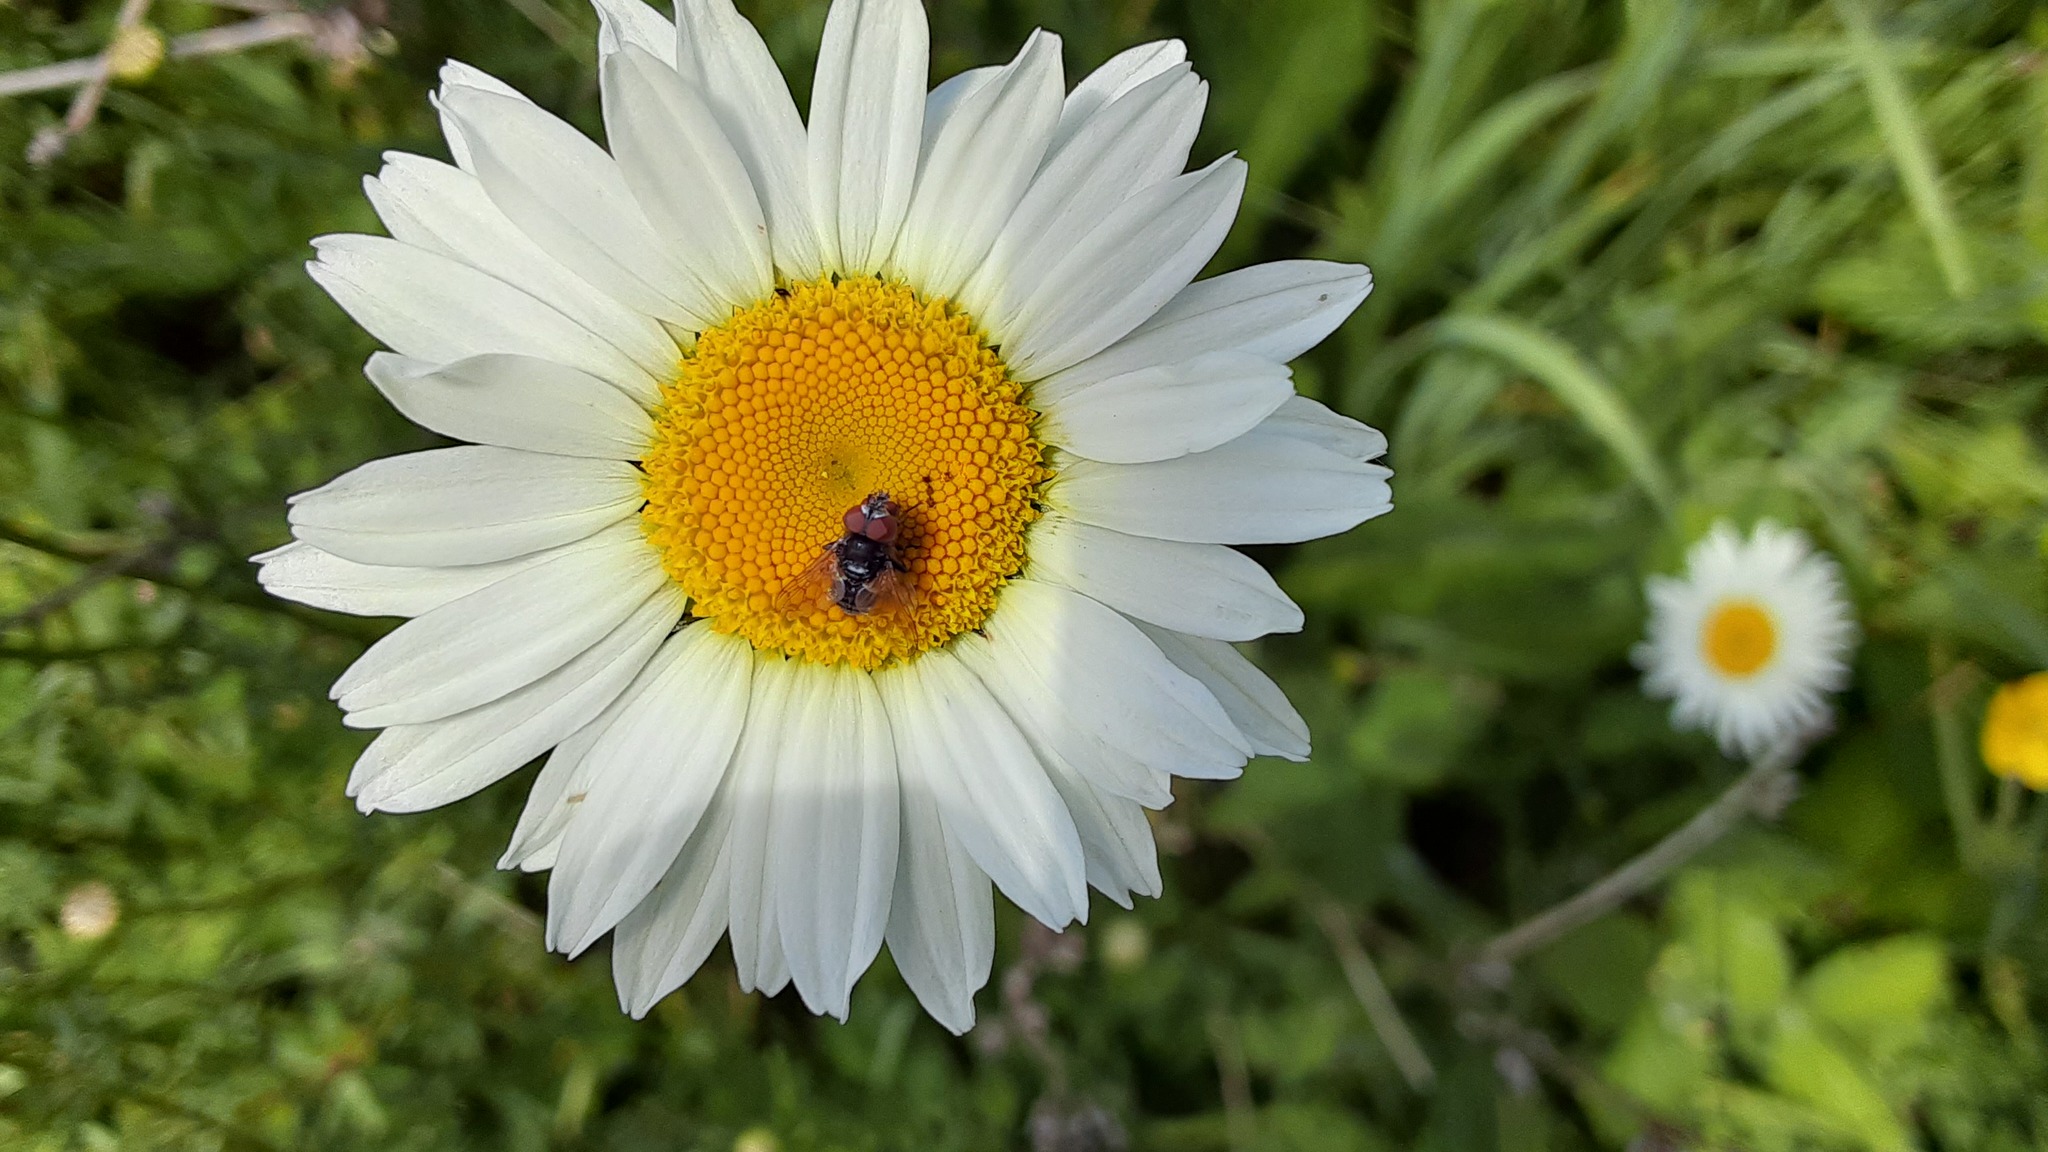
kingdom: Plantae
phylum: Tracheophyta
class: Magnoliopsida
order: Asterales
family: Asteraceae
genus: Leucanthemum
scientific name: Leucanthemum vulgare
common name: Oxeye daisy
